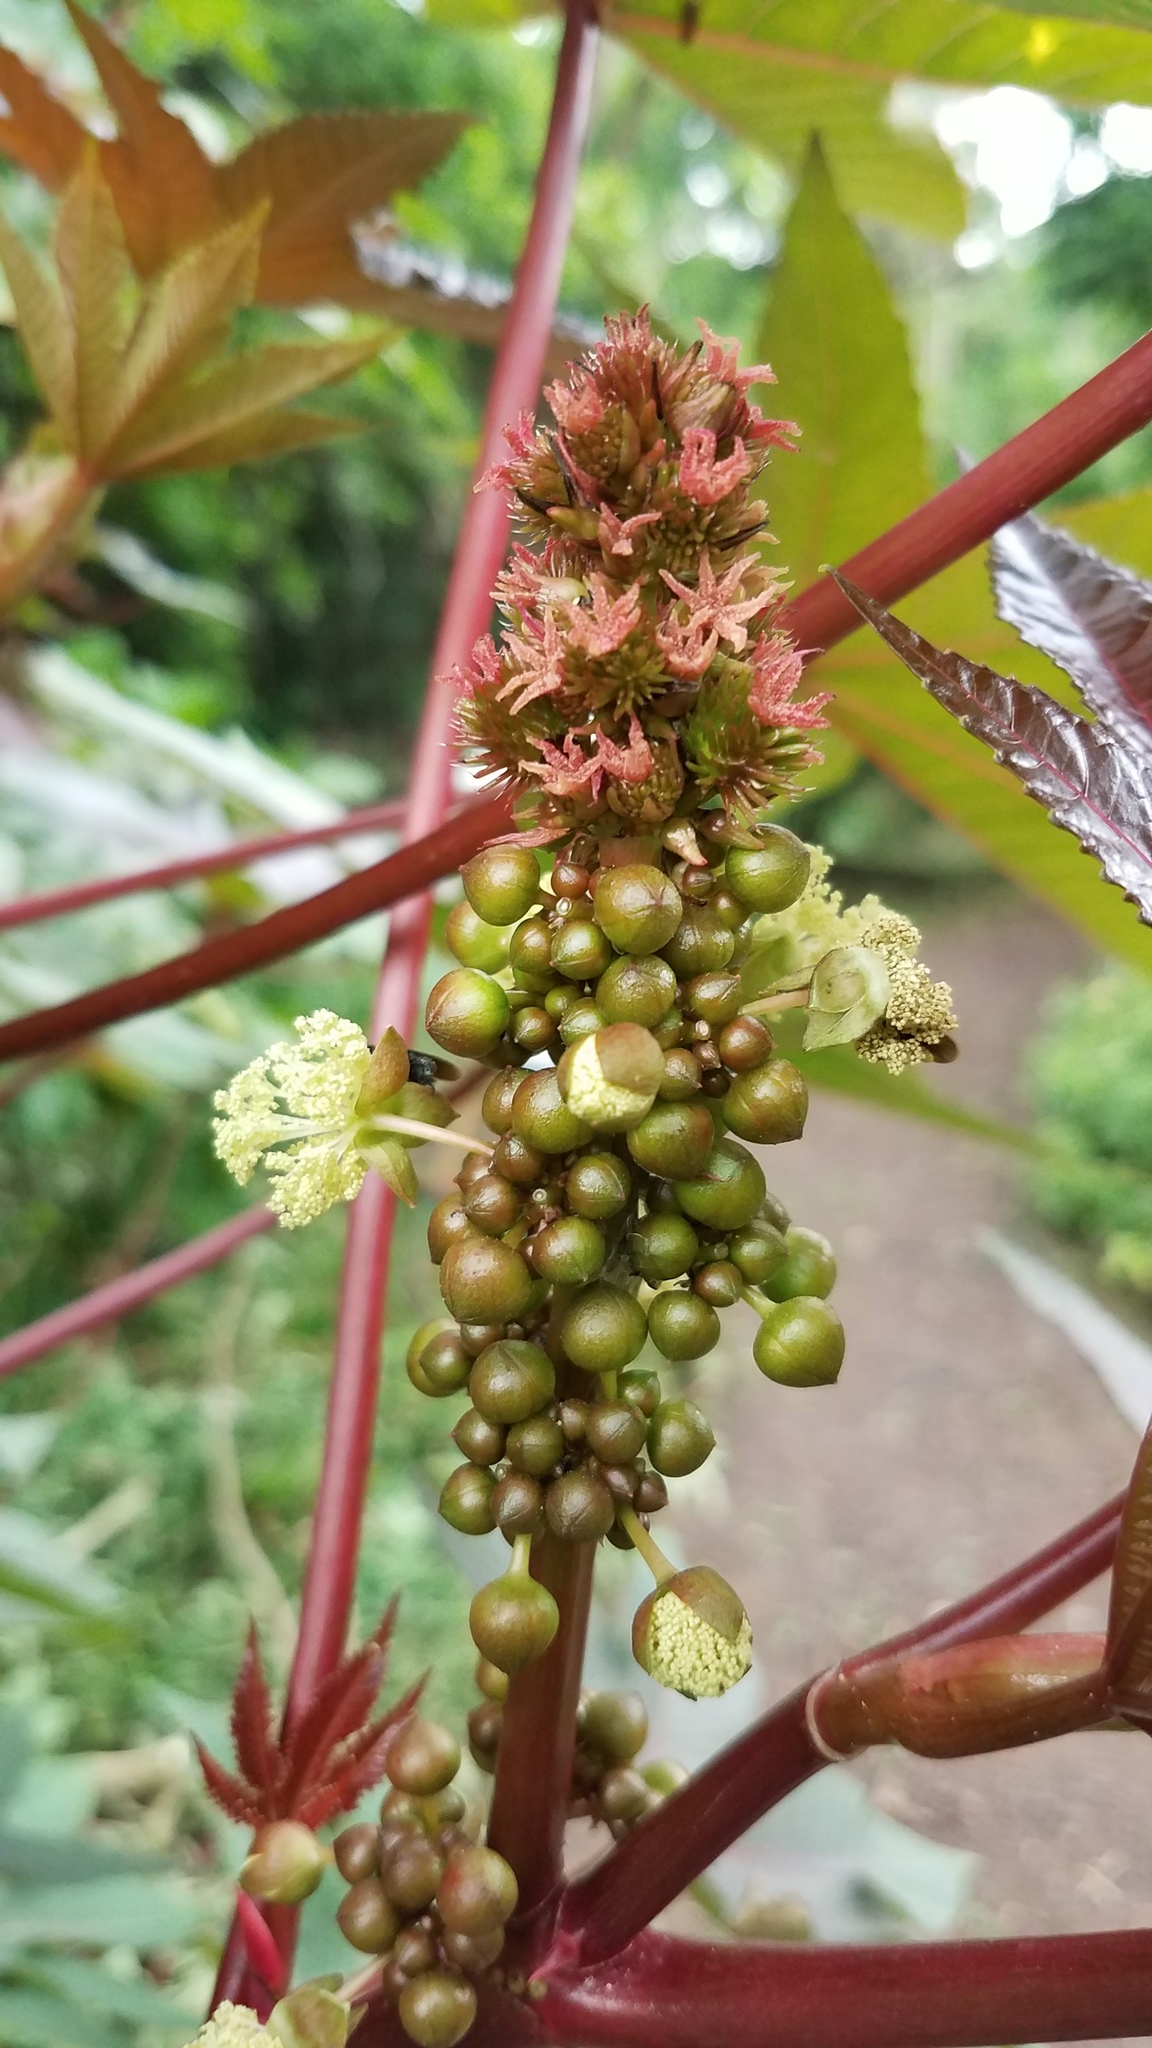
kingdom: Plantae
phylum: Tracheophyta
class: Magnoliopsida
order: Malpighiales
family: Euphorbiaceae
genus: Ricinus
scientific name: Ricinus communis
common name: Castor-oil-plant
